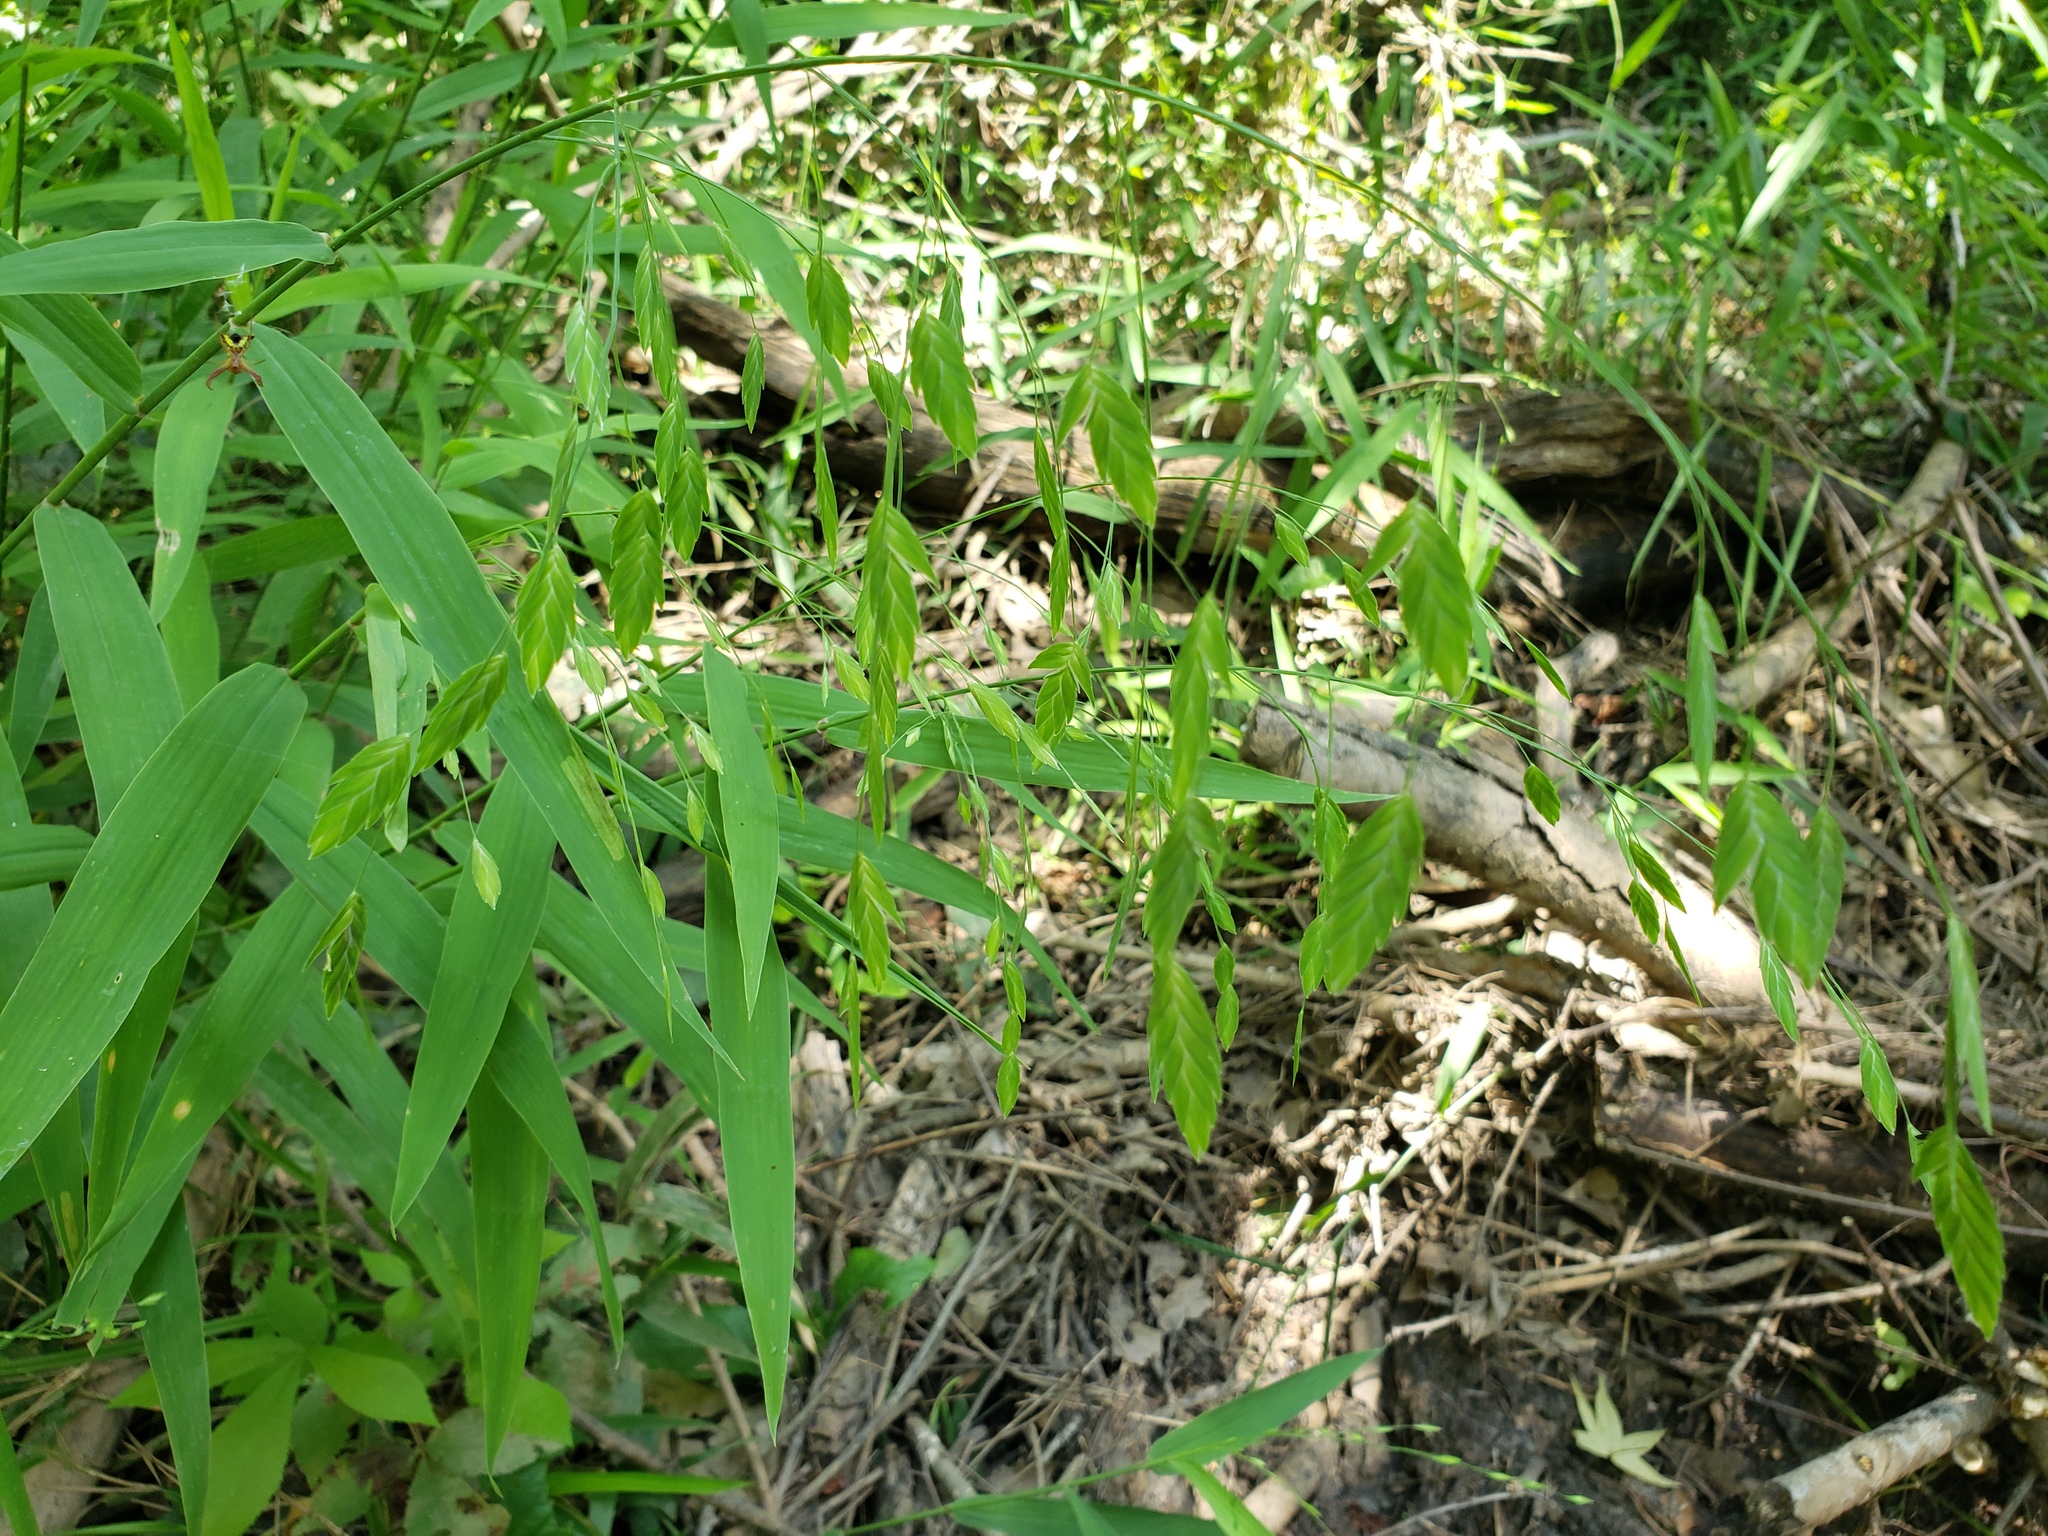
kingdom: Plantae
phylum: Tracheophyta
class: Liliopsida
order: Poales
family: Poaceae
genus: Chasmanthium
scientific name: Chasmanthium latifolium
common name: Broad-leaved chasmanthium
